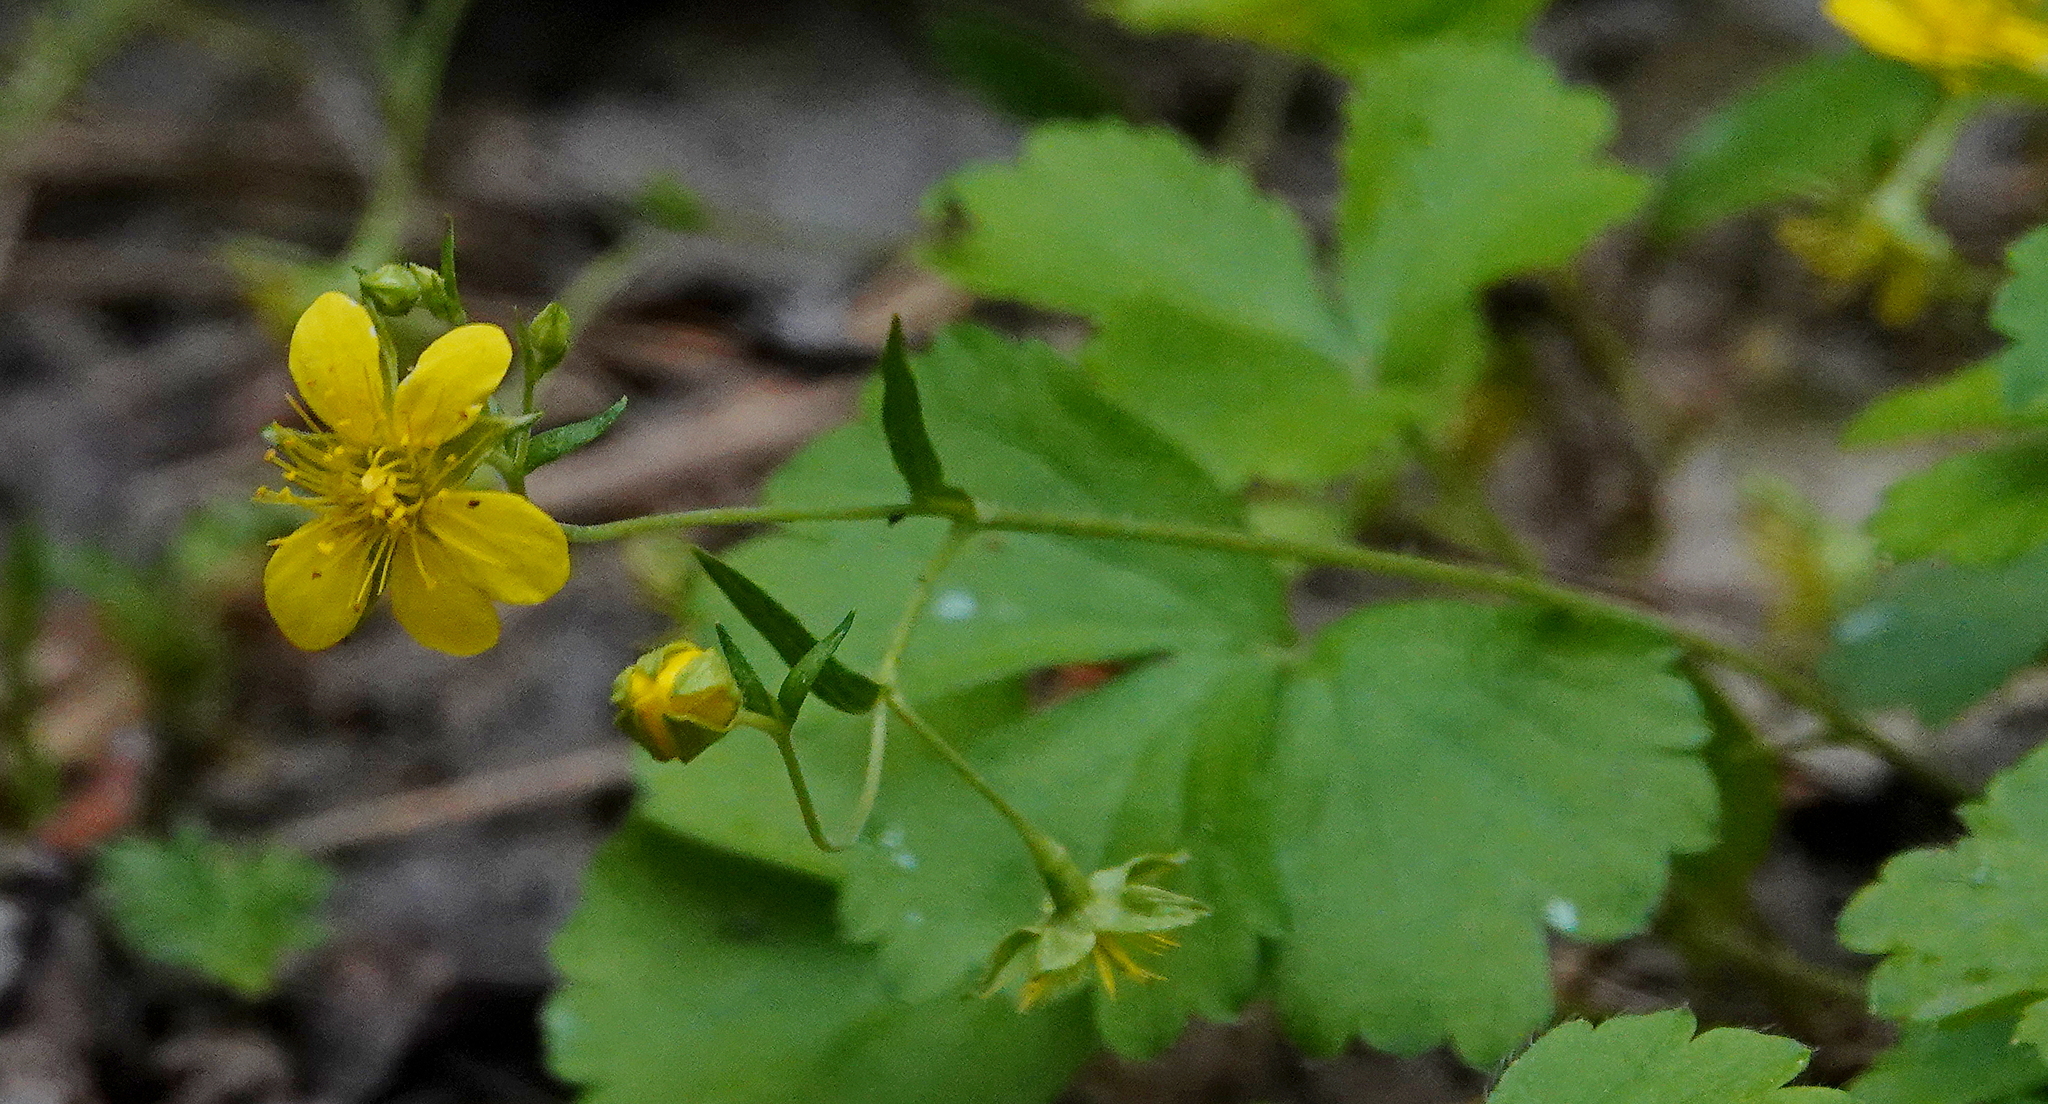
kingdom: Plantae
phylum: Tracheophyta
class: Magnoliopsida
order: Rosales
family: Rosaceae
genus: Geum
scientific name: Geum fragarioides
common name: Appalachian barren strawberry
